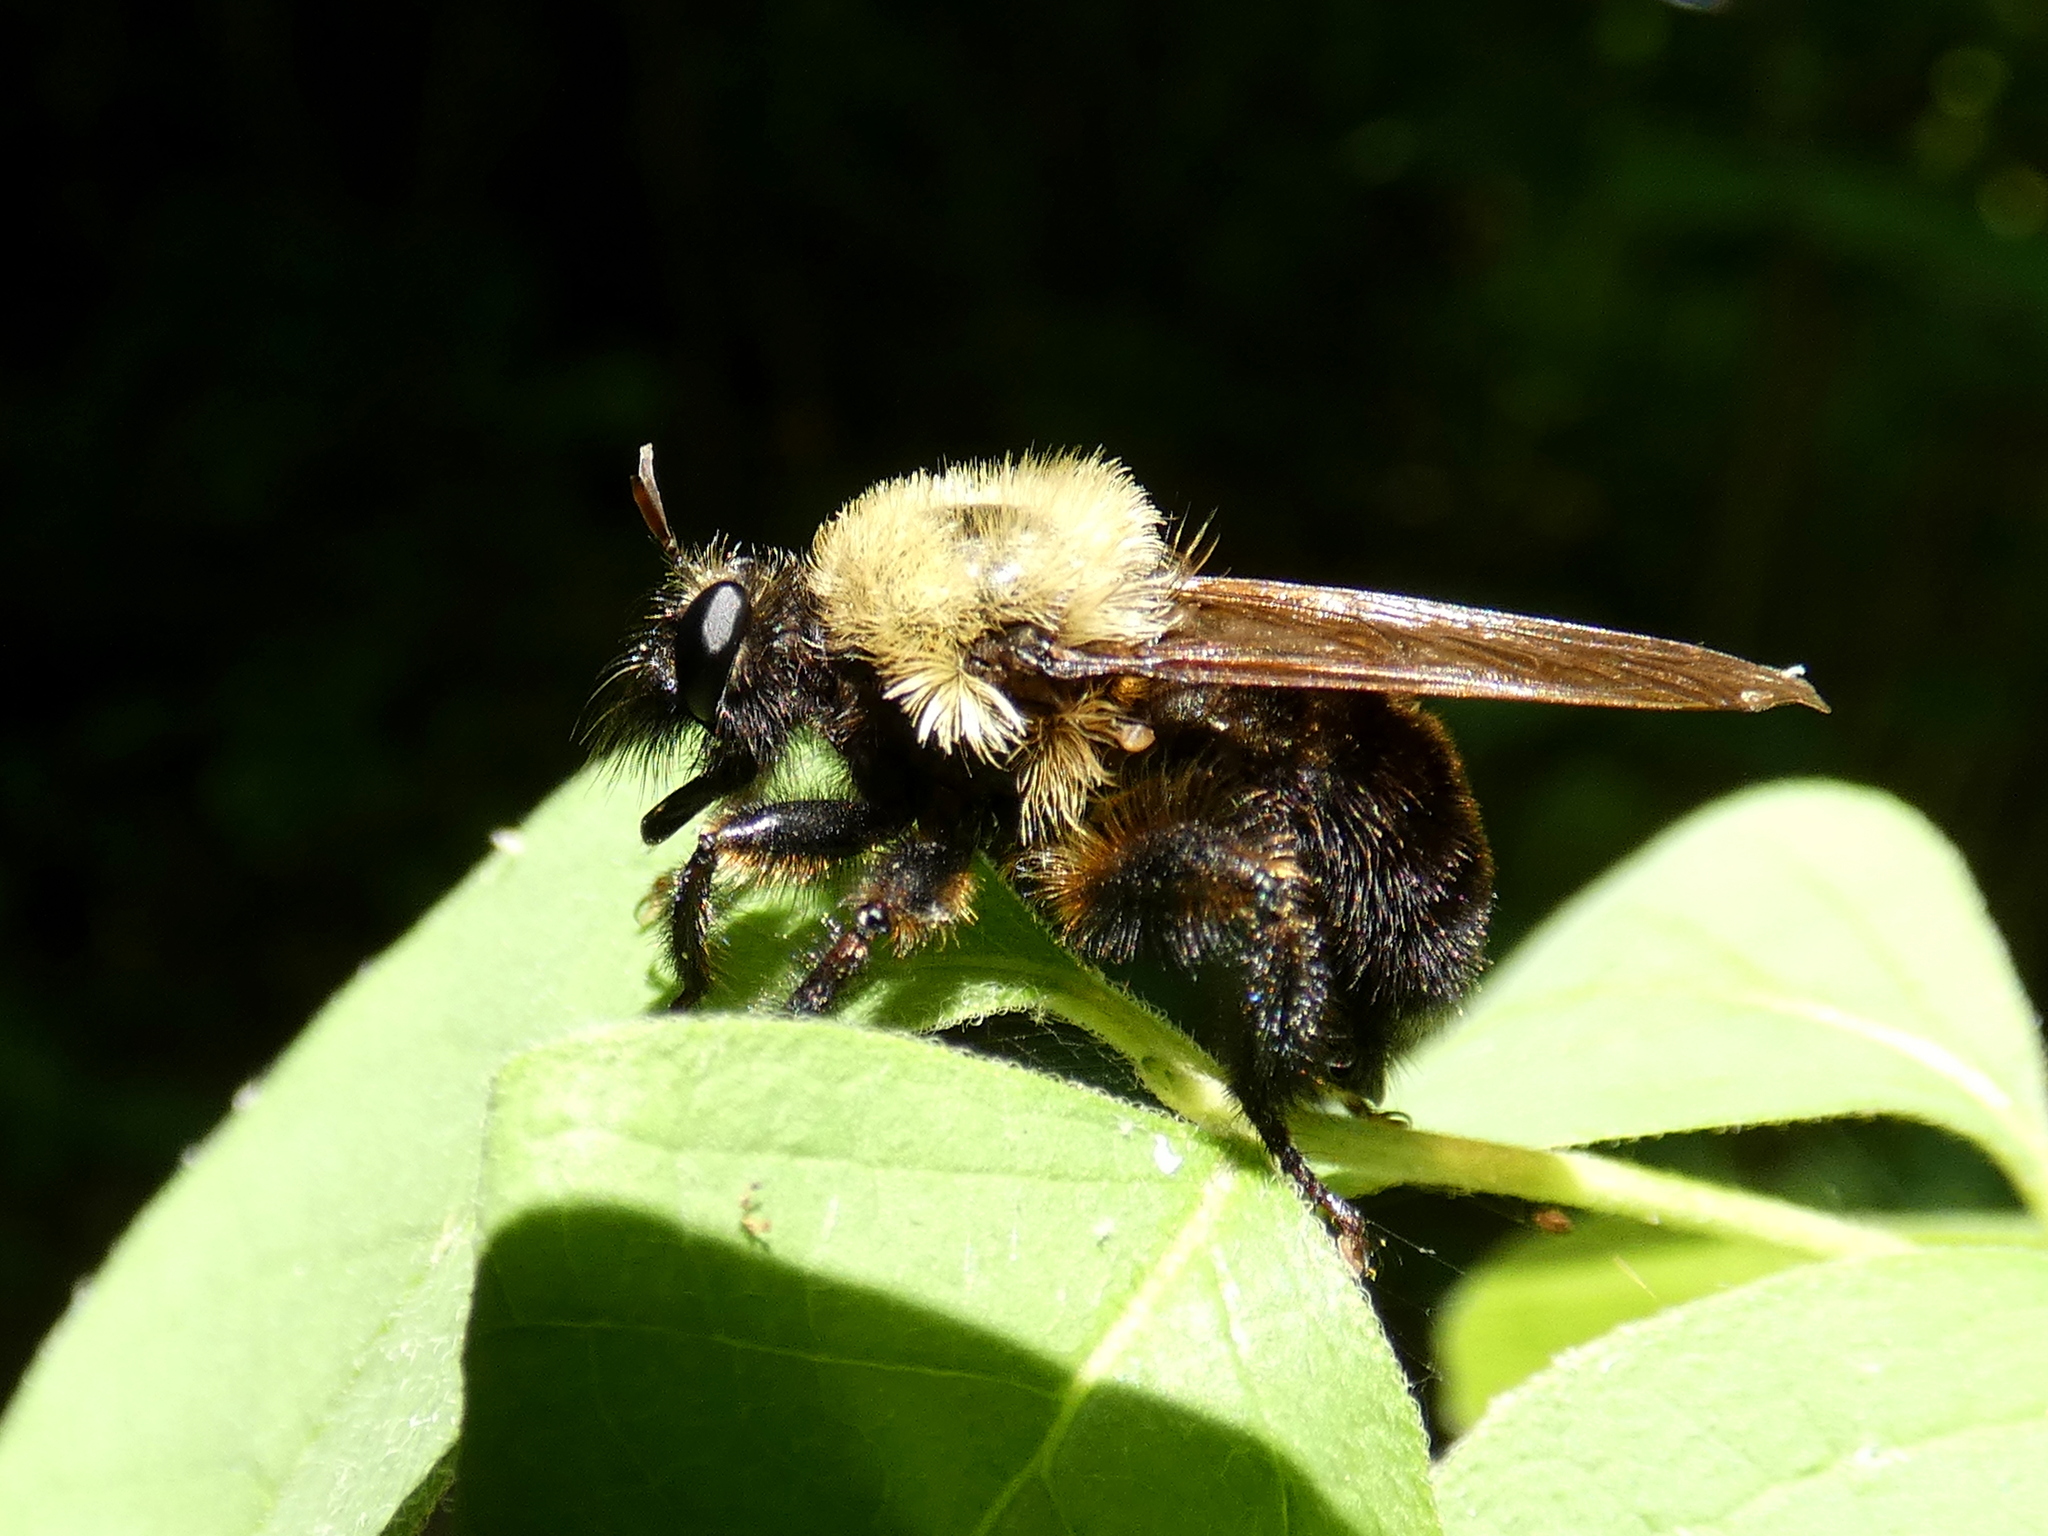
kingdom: Animalia
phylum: Arthropoda
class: Insecta
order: Diptera
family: Asilidae
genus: Laphria
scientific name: Laphria thoracica
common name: Bumble bee mimic robber fly
